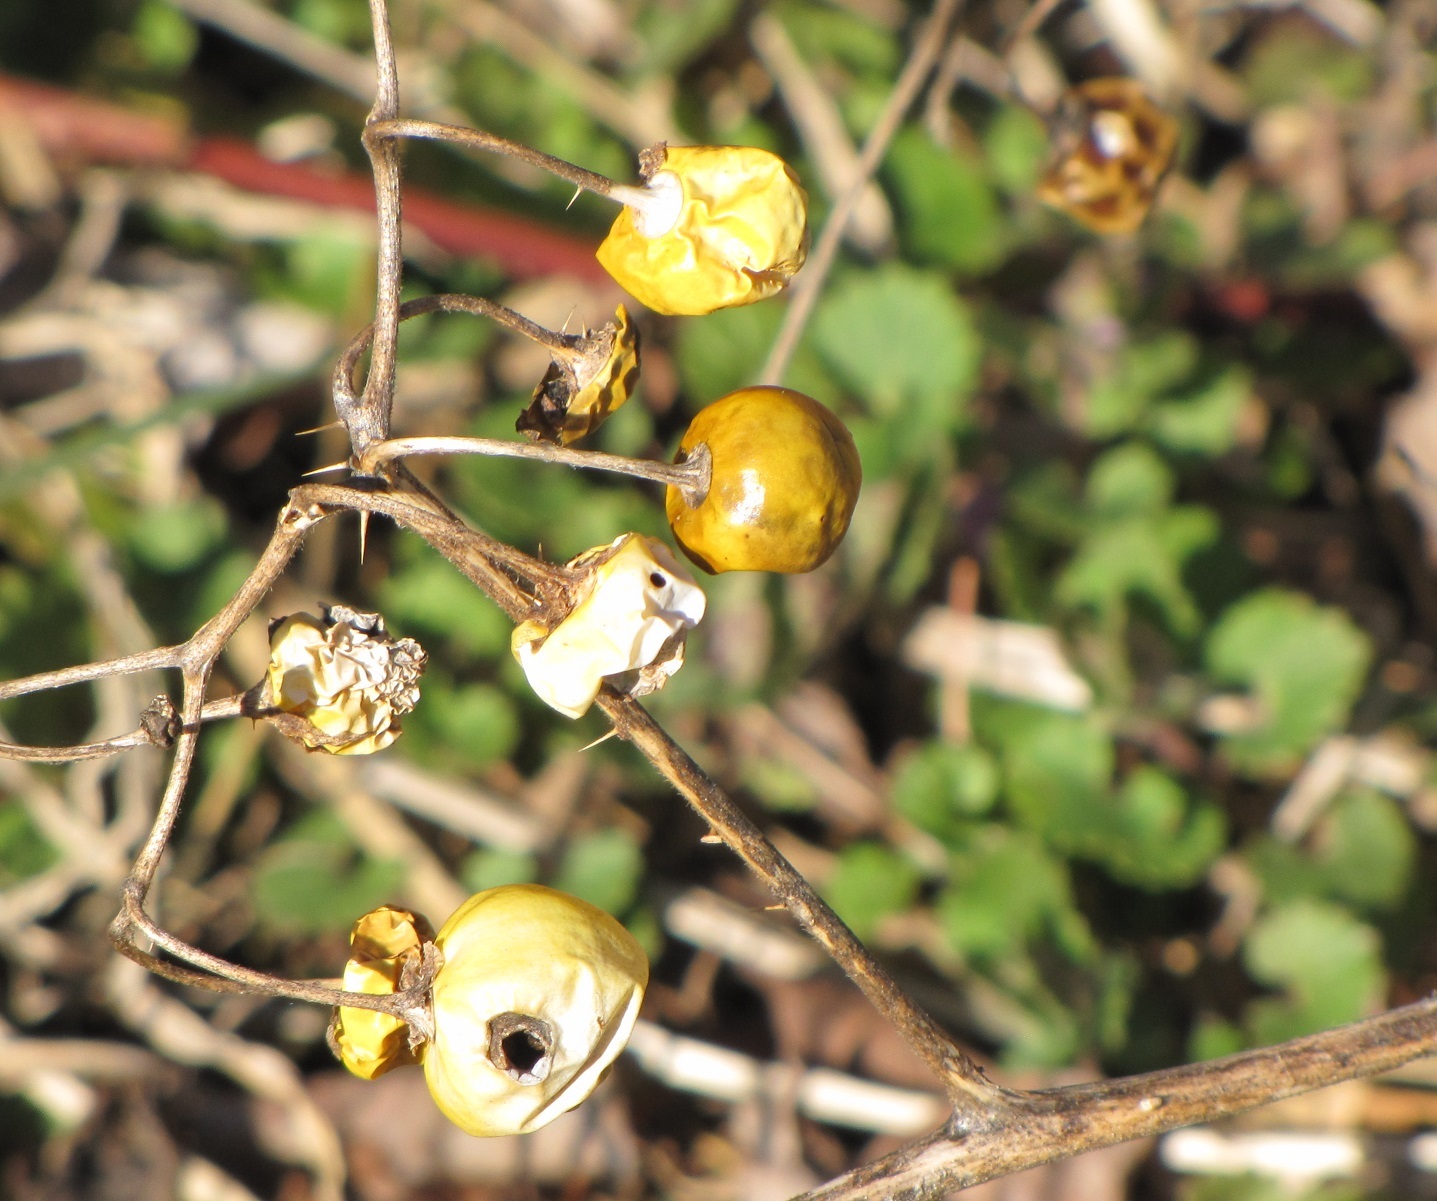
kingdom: Plantae
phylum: Tracheophyta
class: Magnoliopsida
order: Solanales
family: Solanaceae
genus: Solanum
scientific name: Solanum carolinense
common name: Horse-nettle
